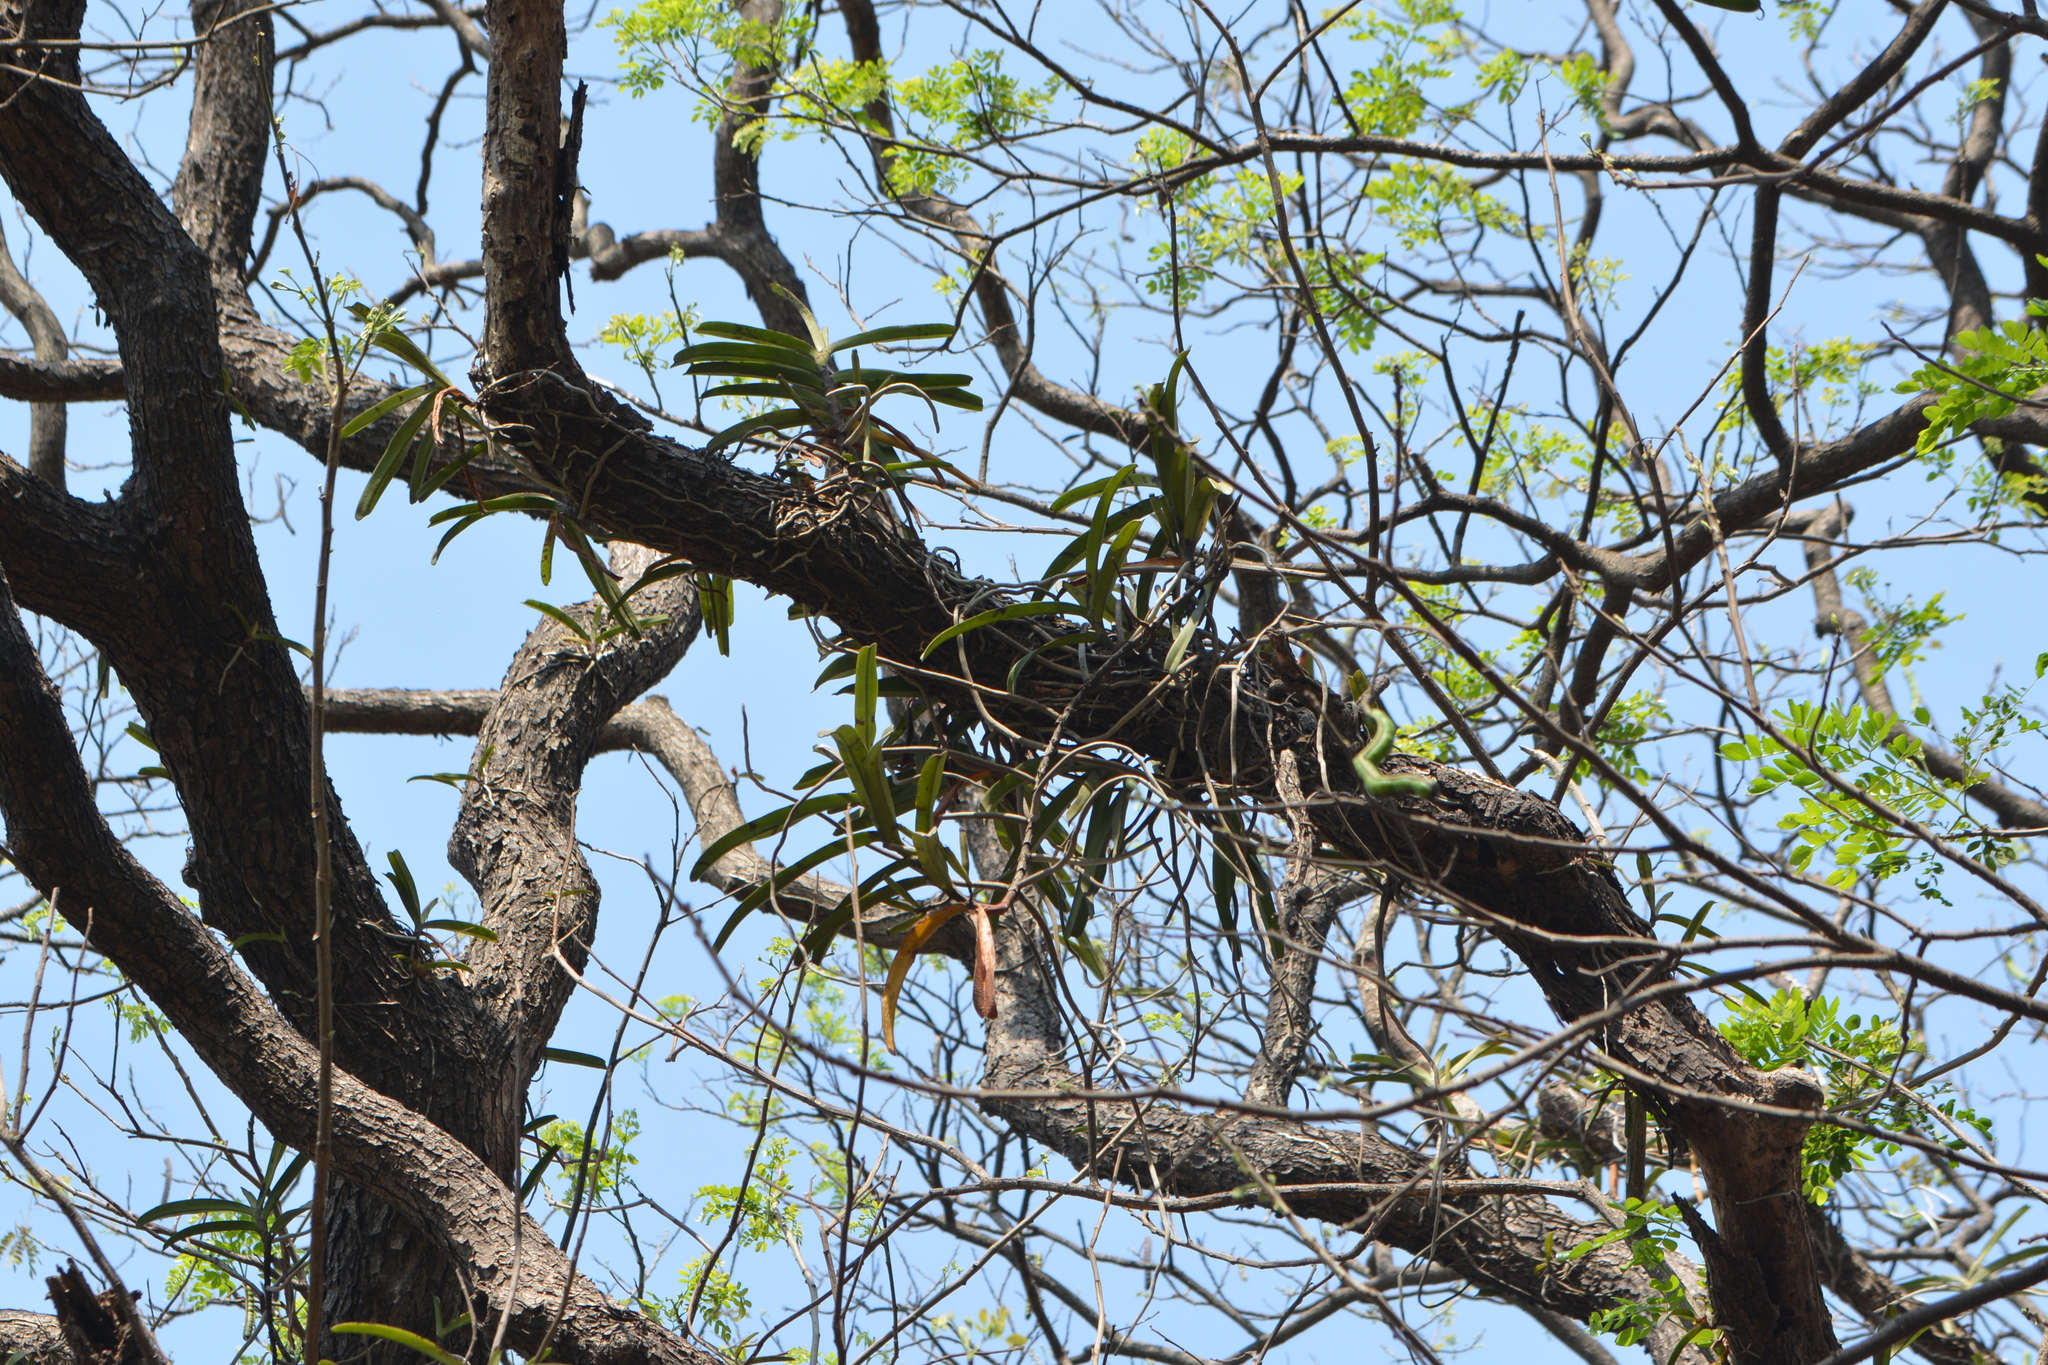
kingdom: Plantae
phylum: Tracheophyta
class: Liliopsida
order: Asparagales
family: Orchidaceae
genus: Vanda
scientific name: Vanda testacea
